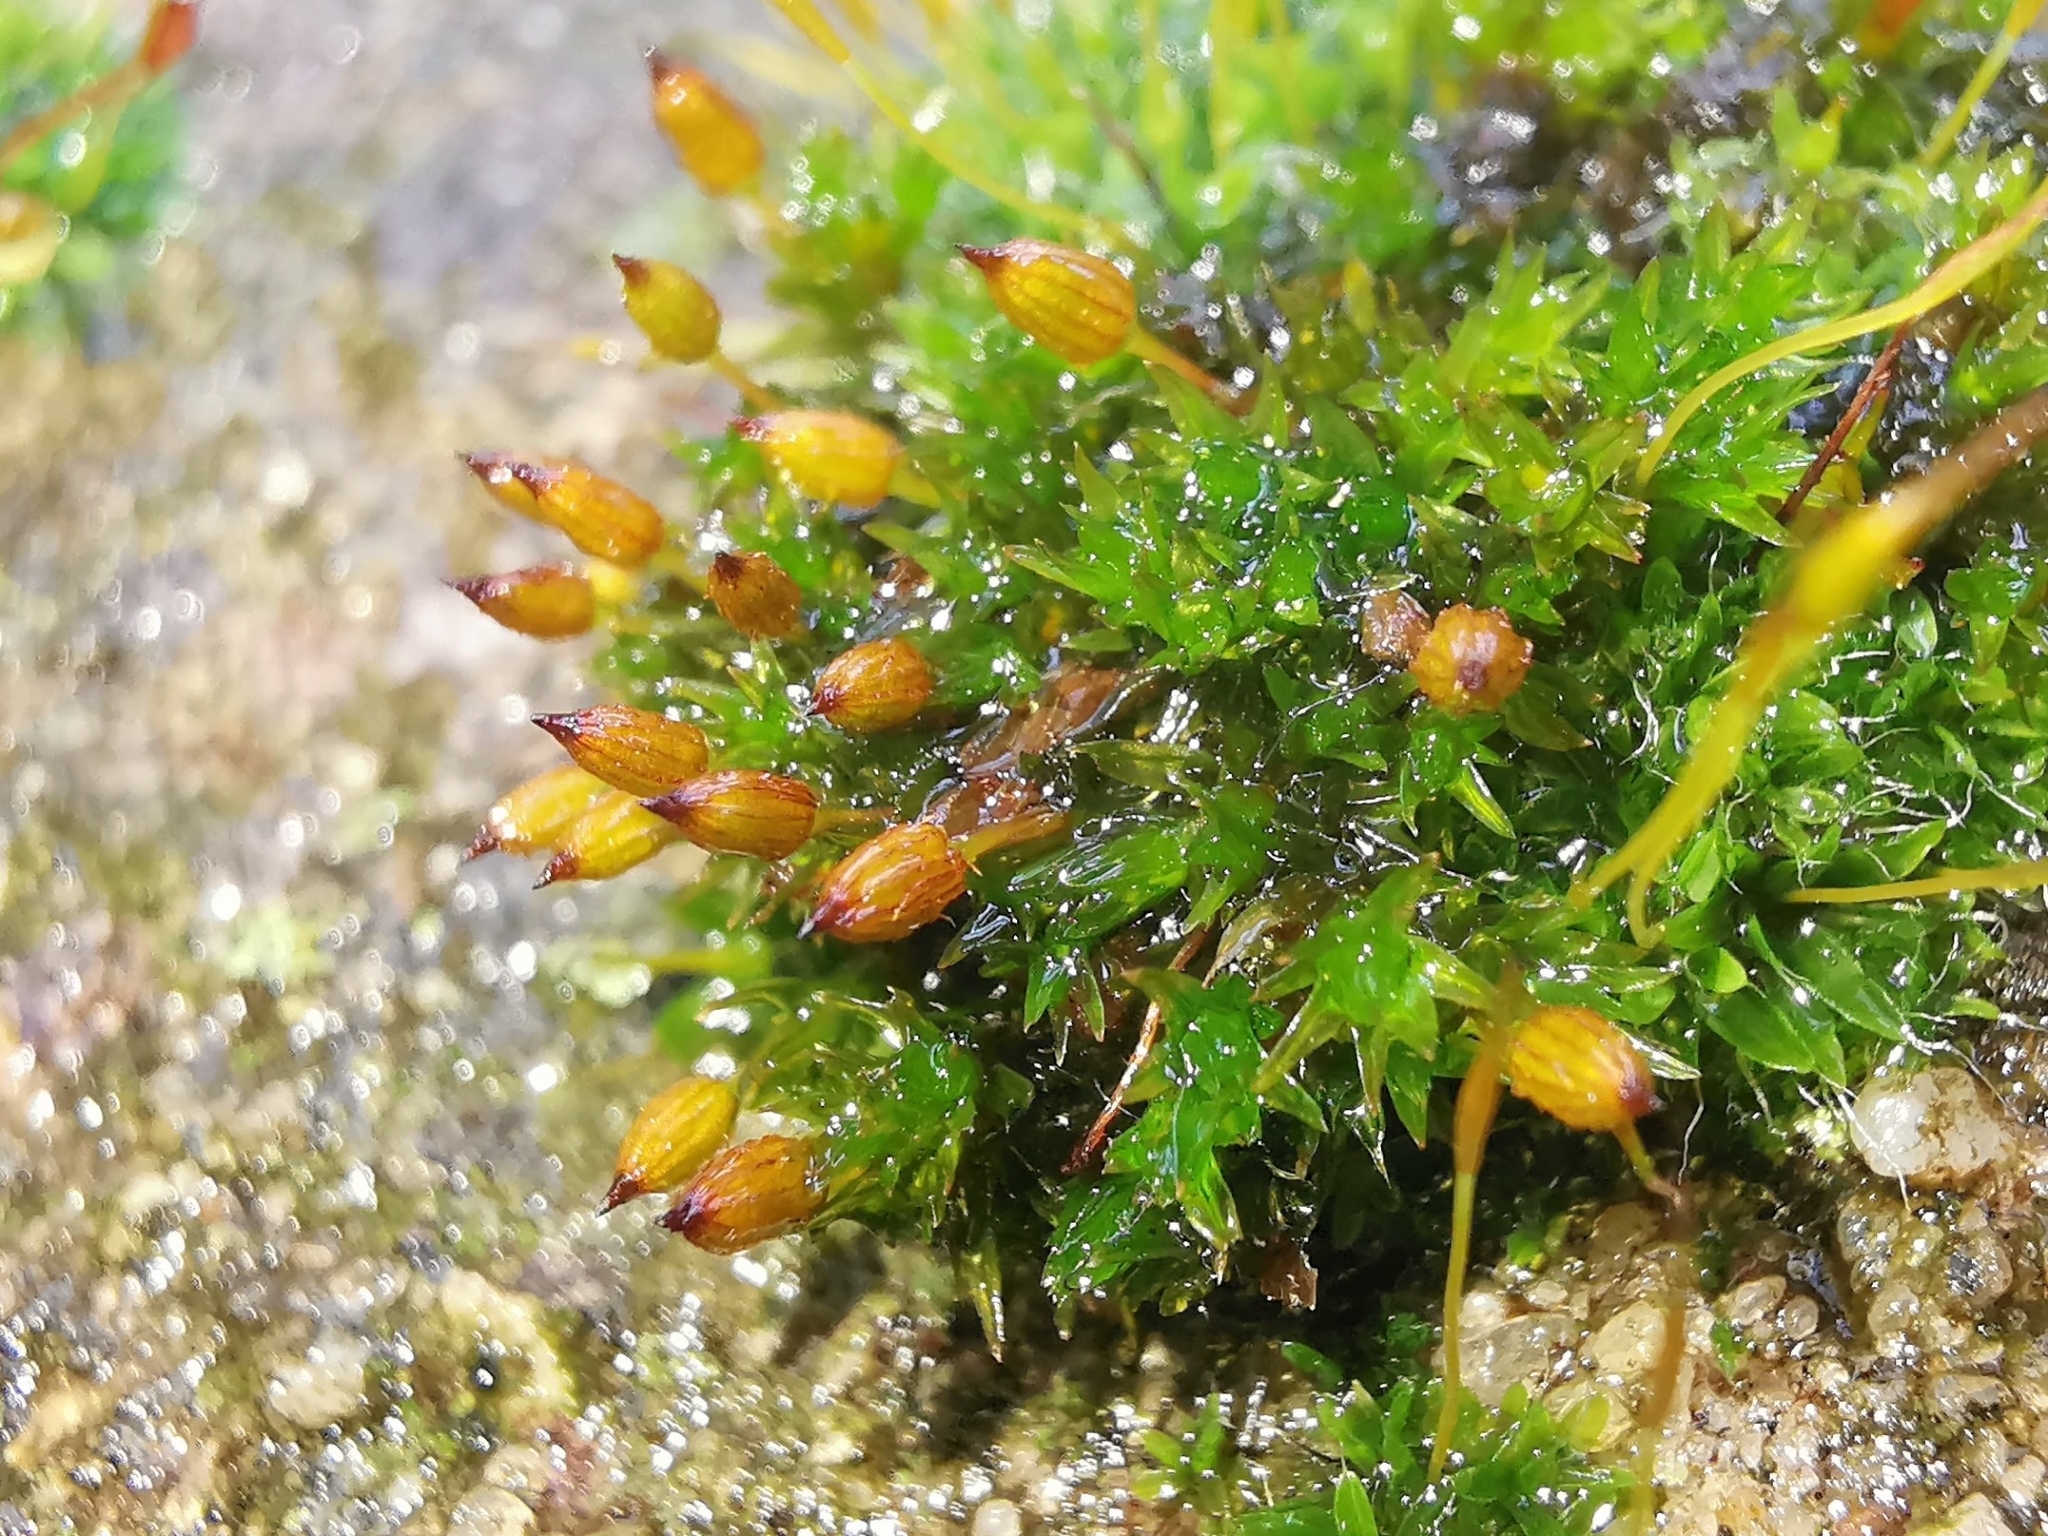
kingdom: Plantae
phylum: Bryophyta
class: Bryopsida
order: Orthotrichales
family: Orthotrichaceae
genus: Orthotrichum
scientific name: Orthotrichum anomalum
